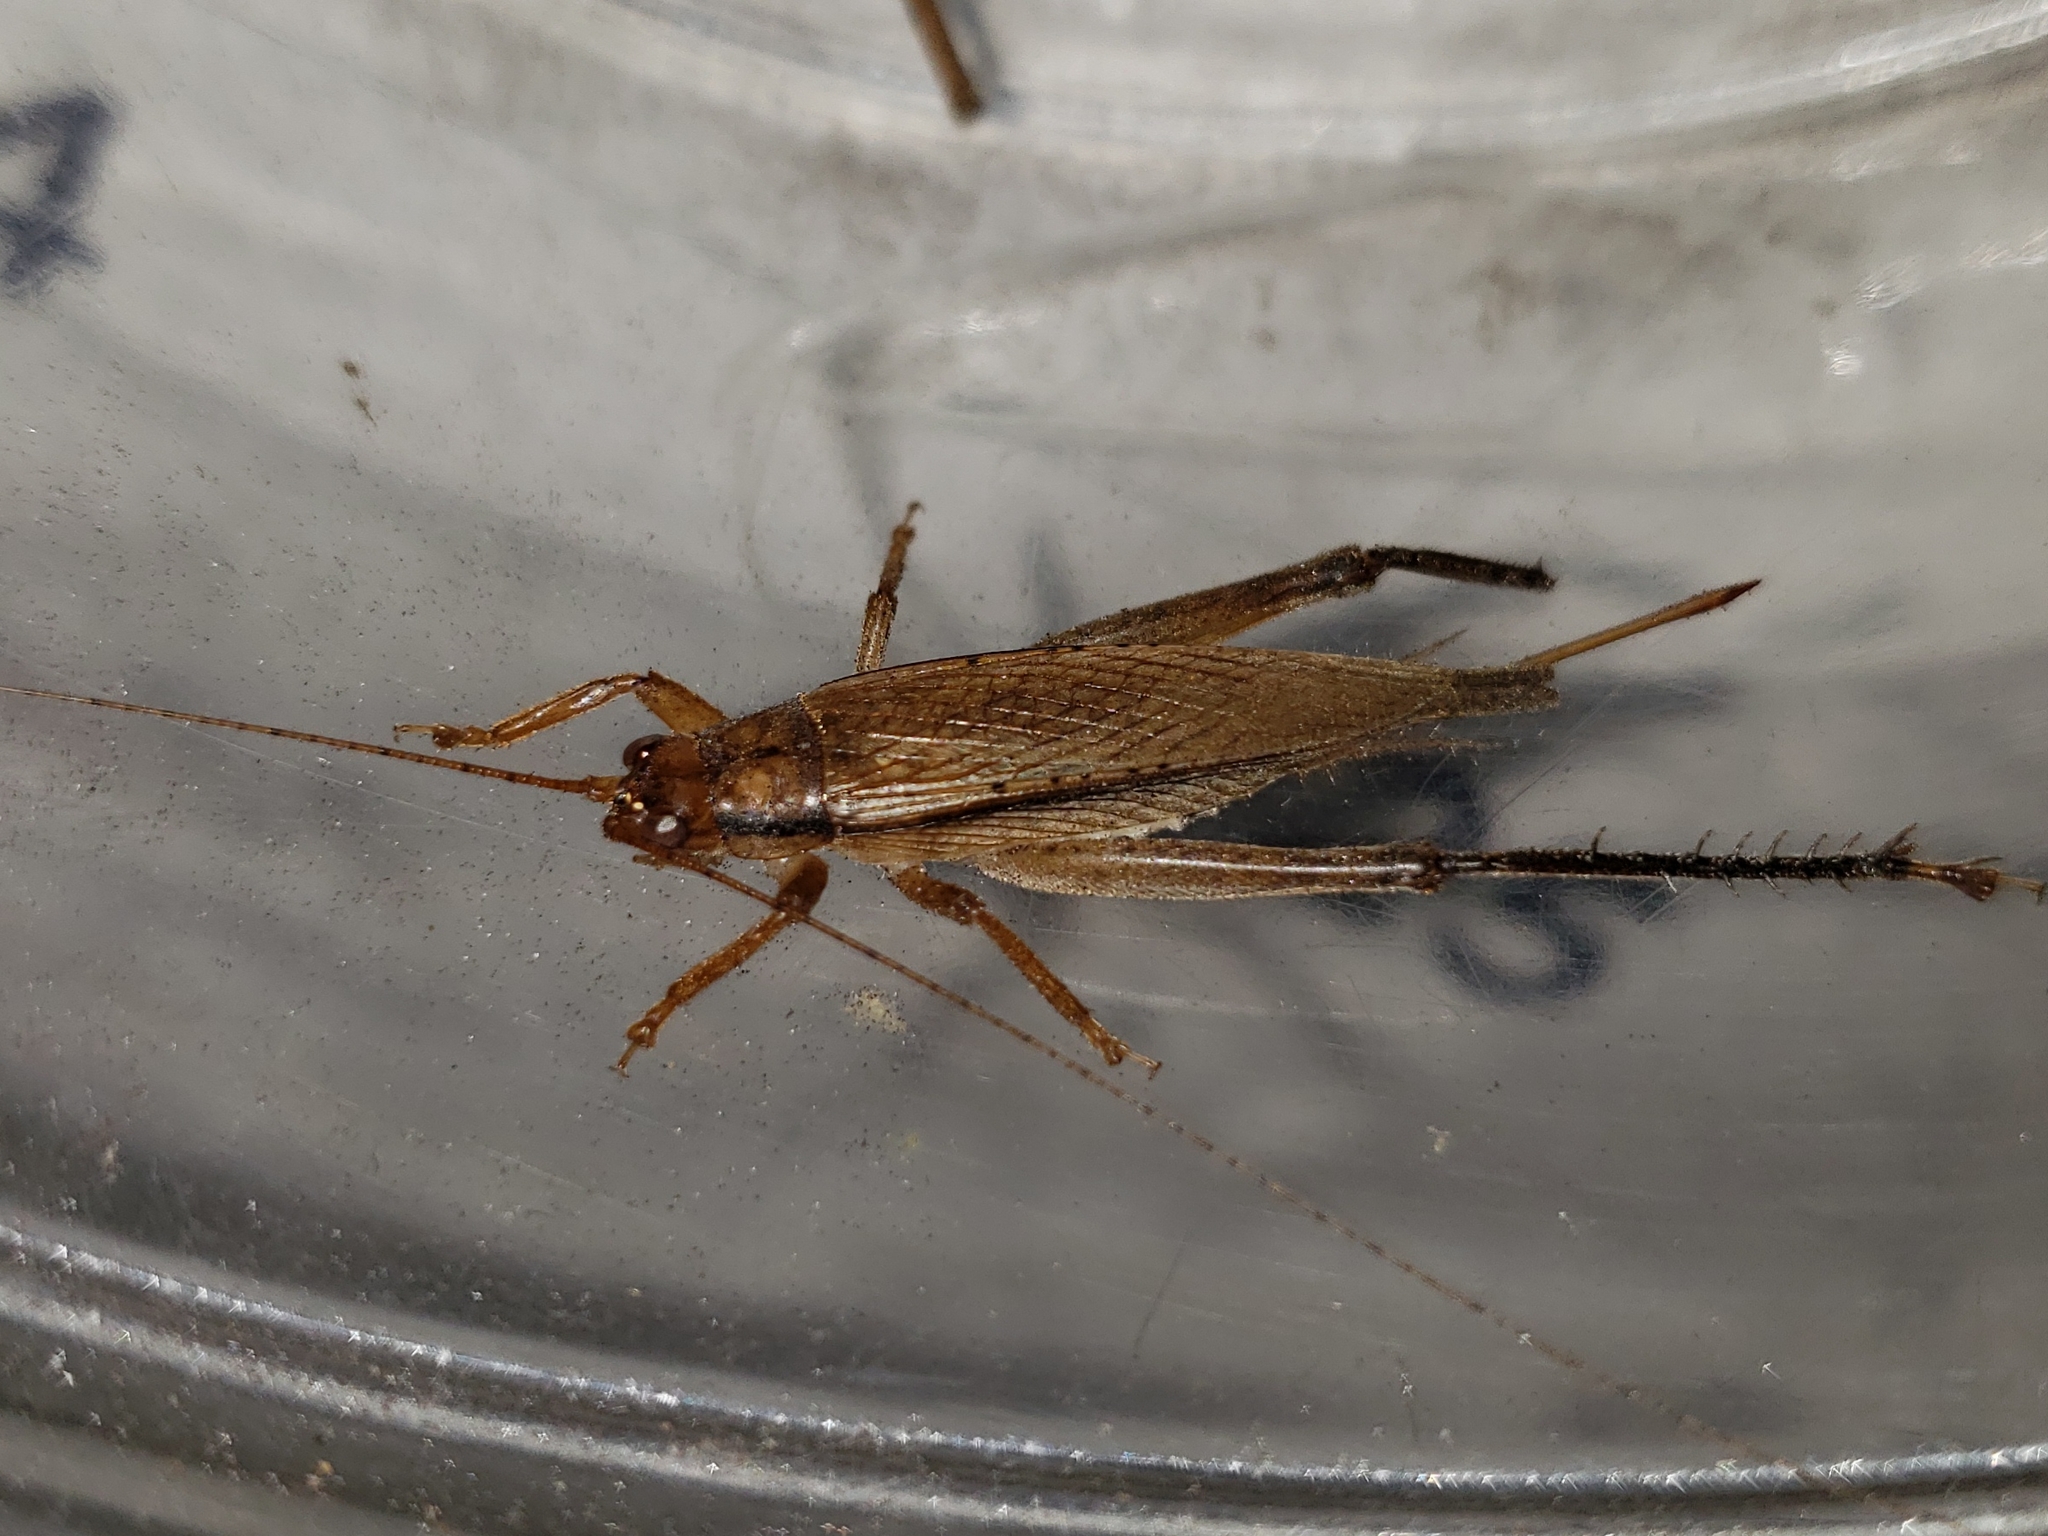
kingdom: Animalia
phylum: Arthropoda
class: Insecta
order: Orthoptera
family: Gryllidae
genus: Hapithus
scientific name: Hapithus oriobates
